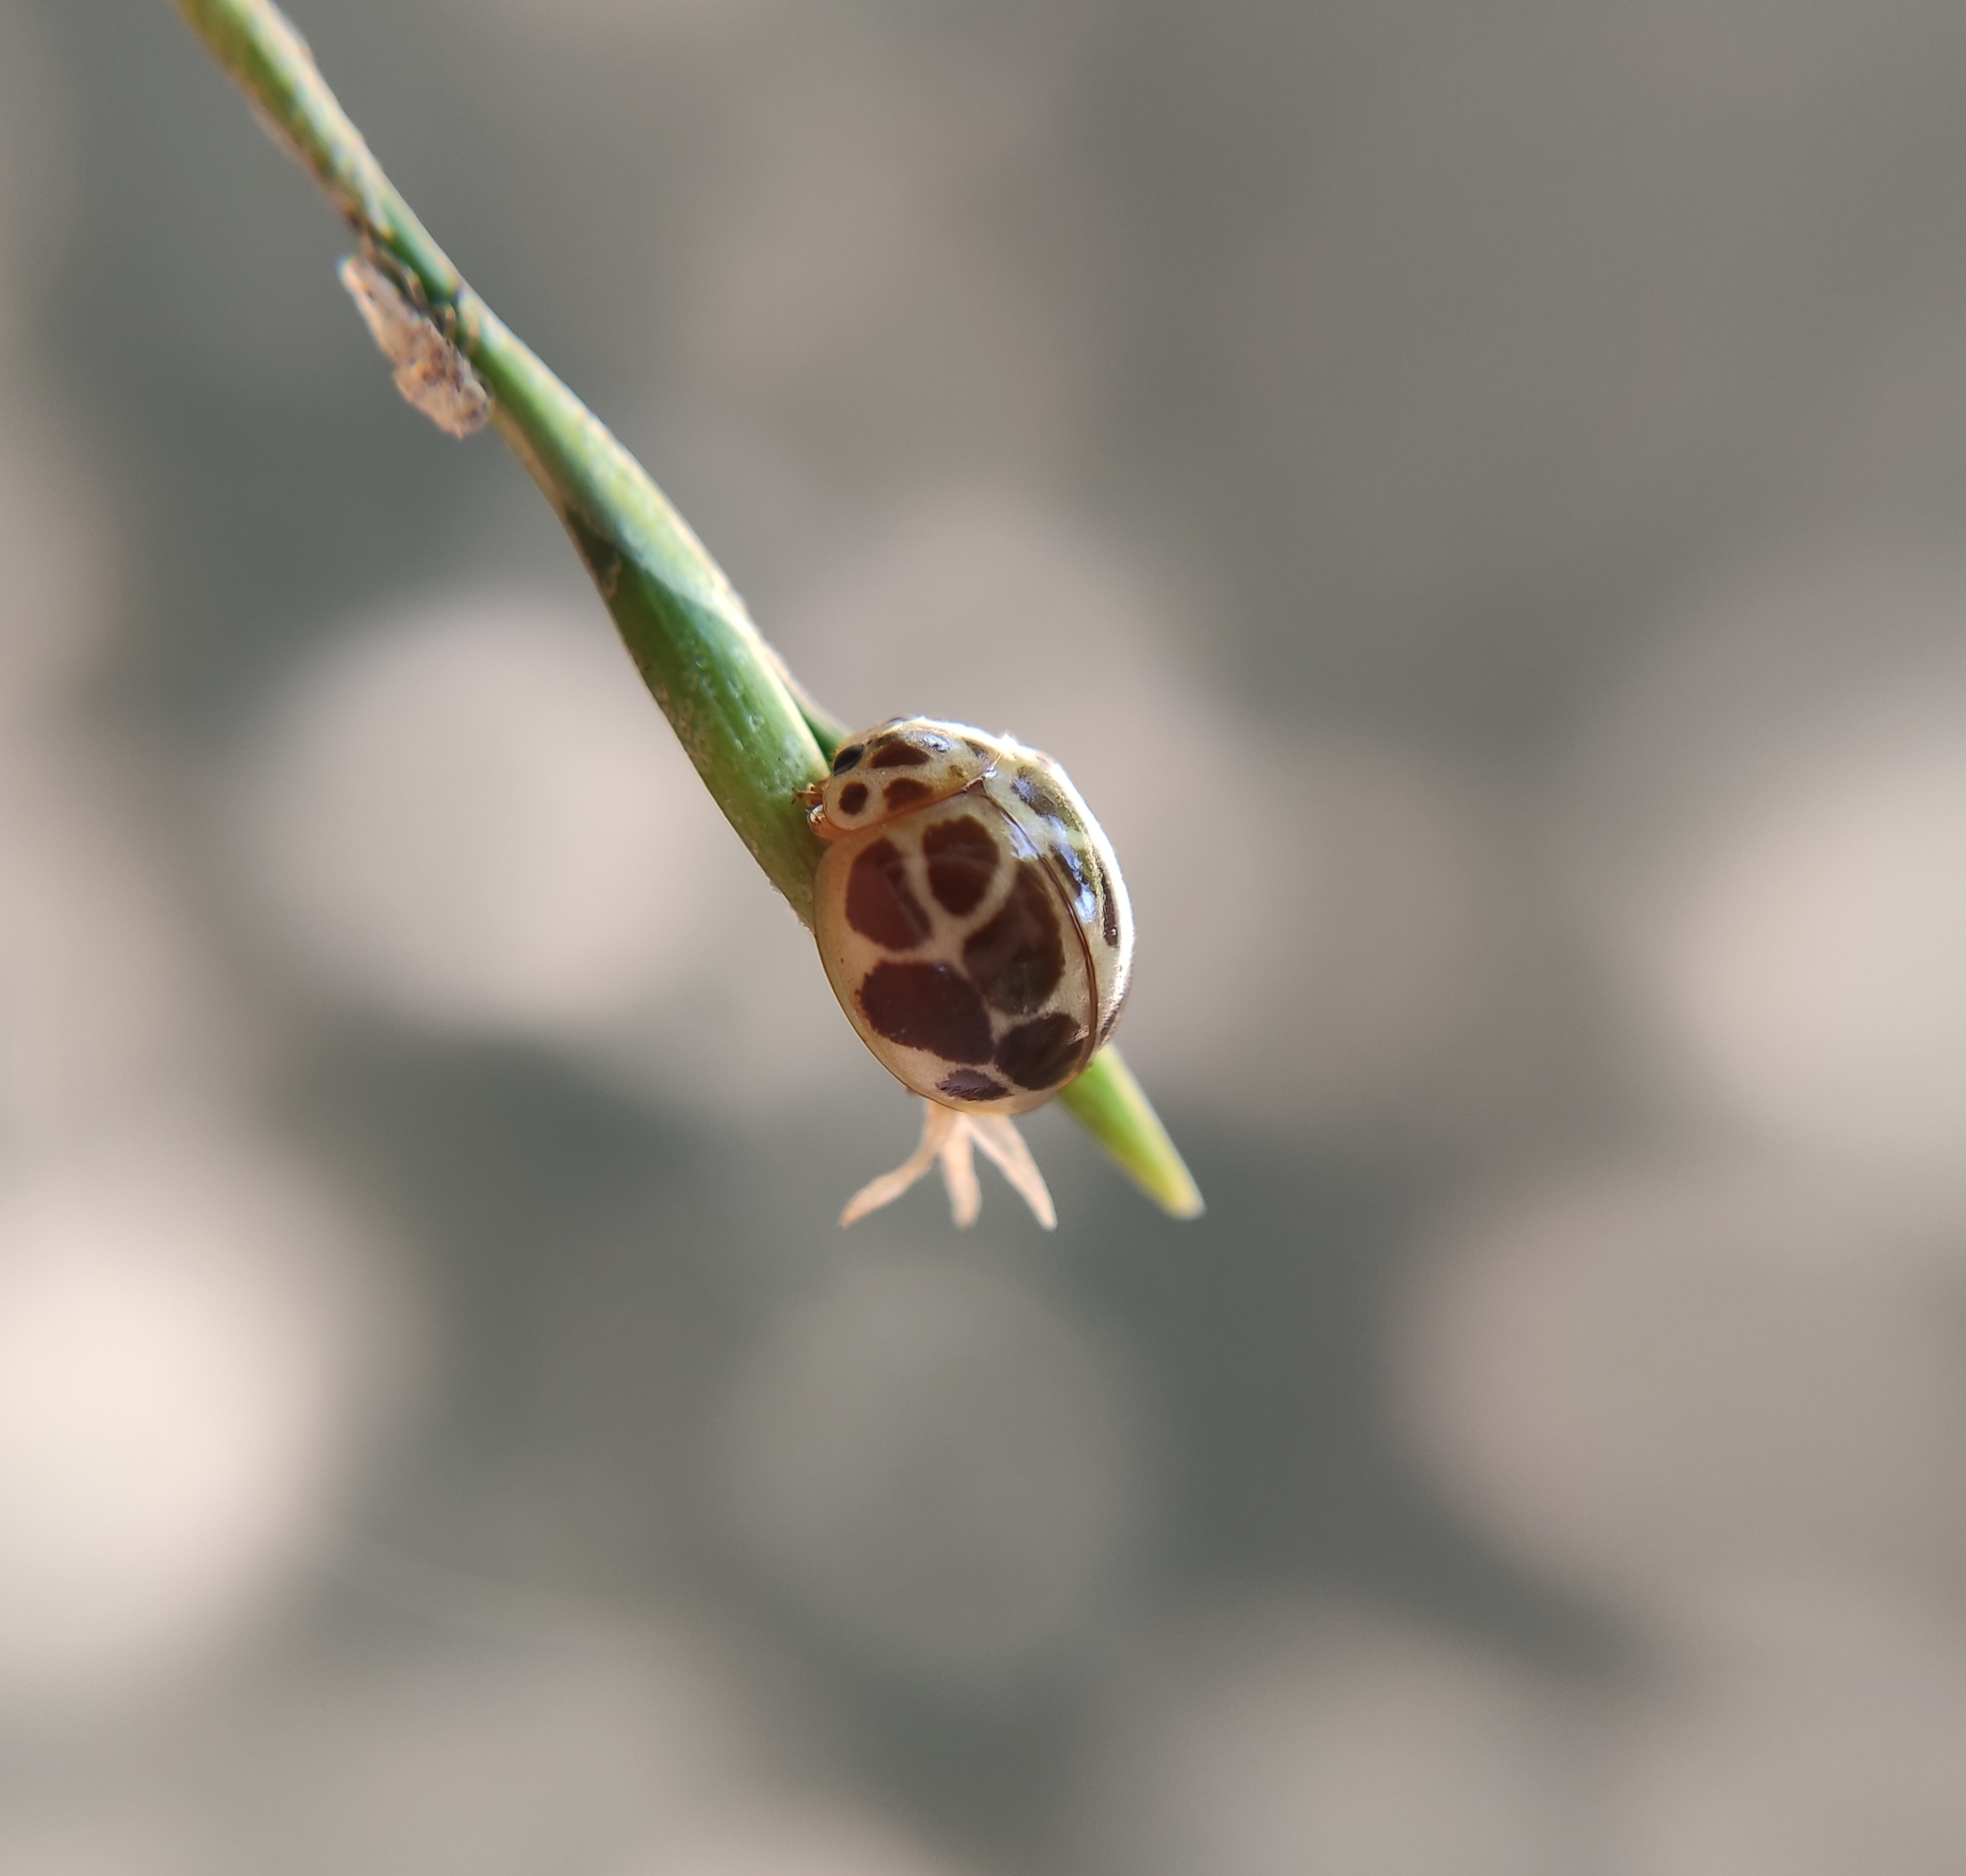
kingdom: Animalia
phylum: Arthropoda
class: Insecta
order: Coleoptera
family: Coccinellidae
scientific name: Coccinellidae
